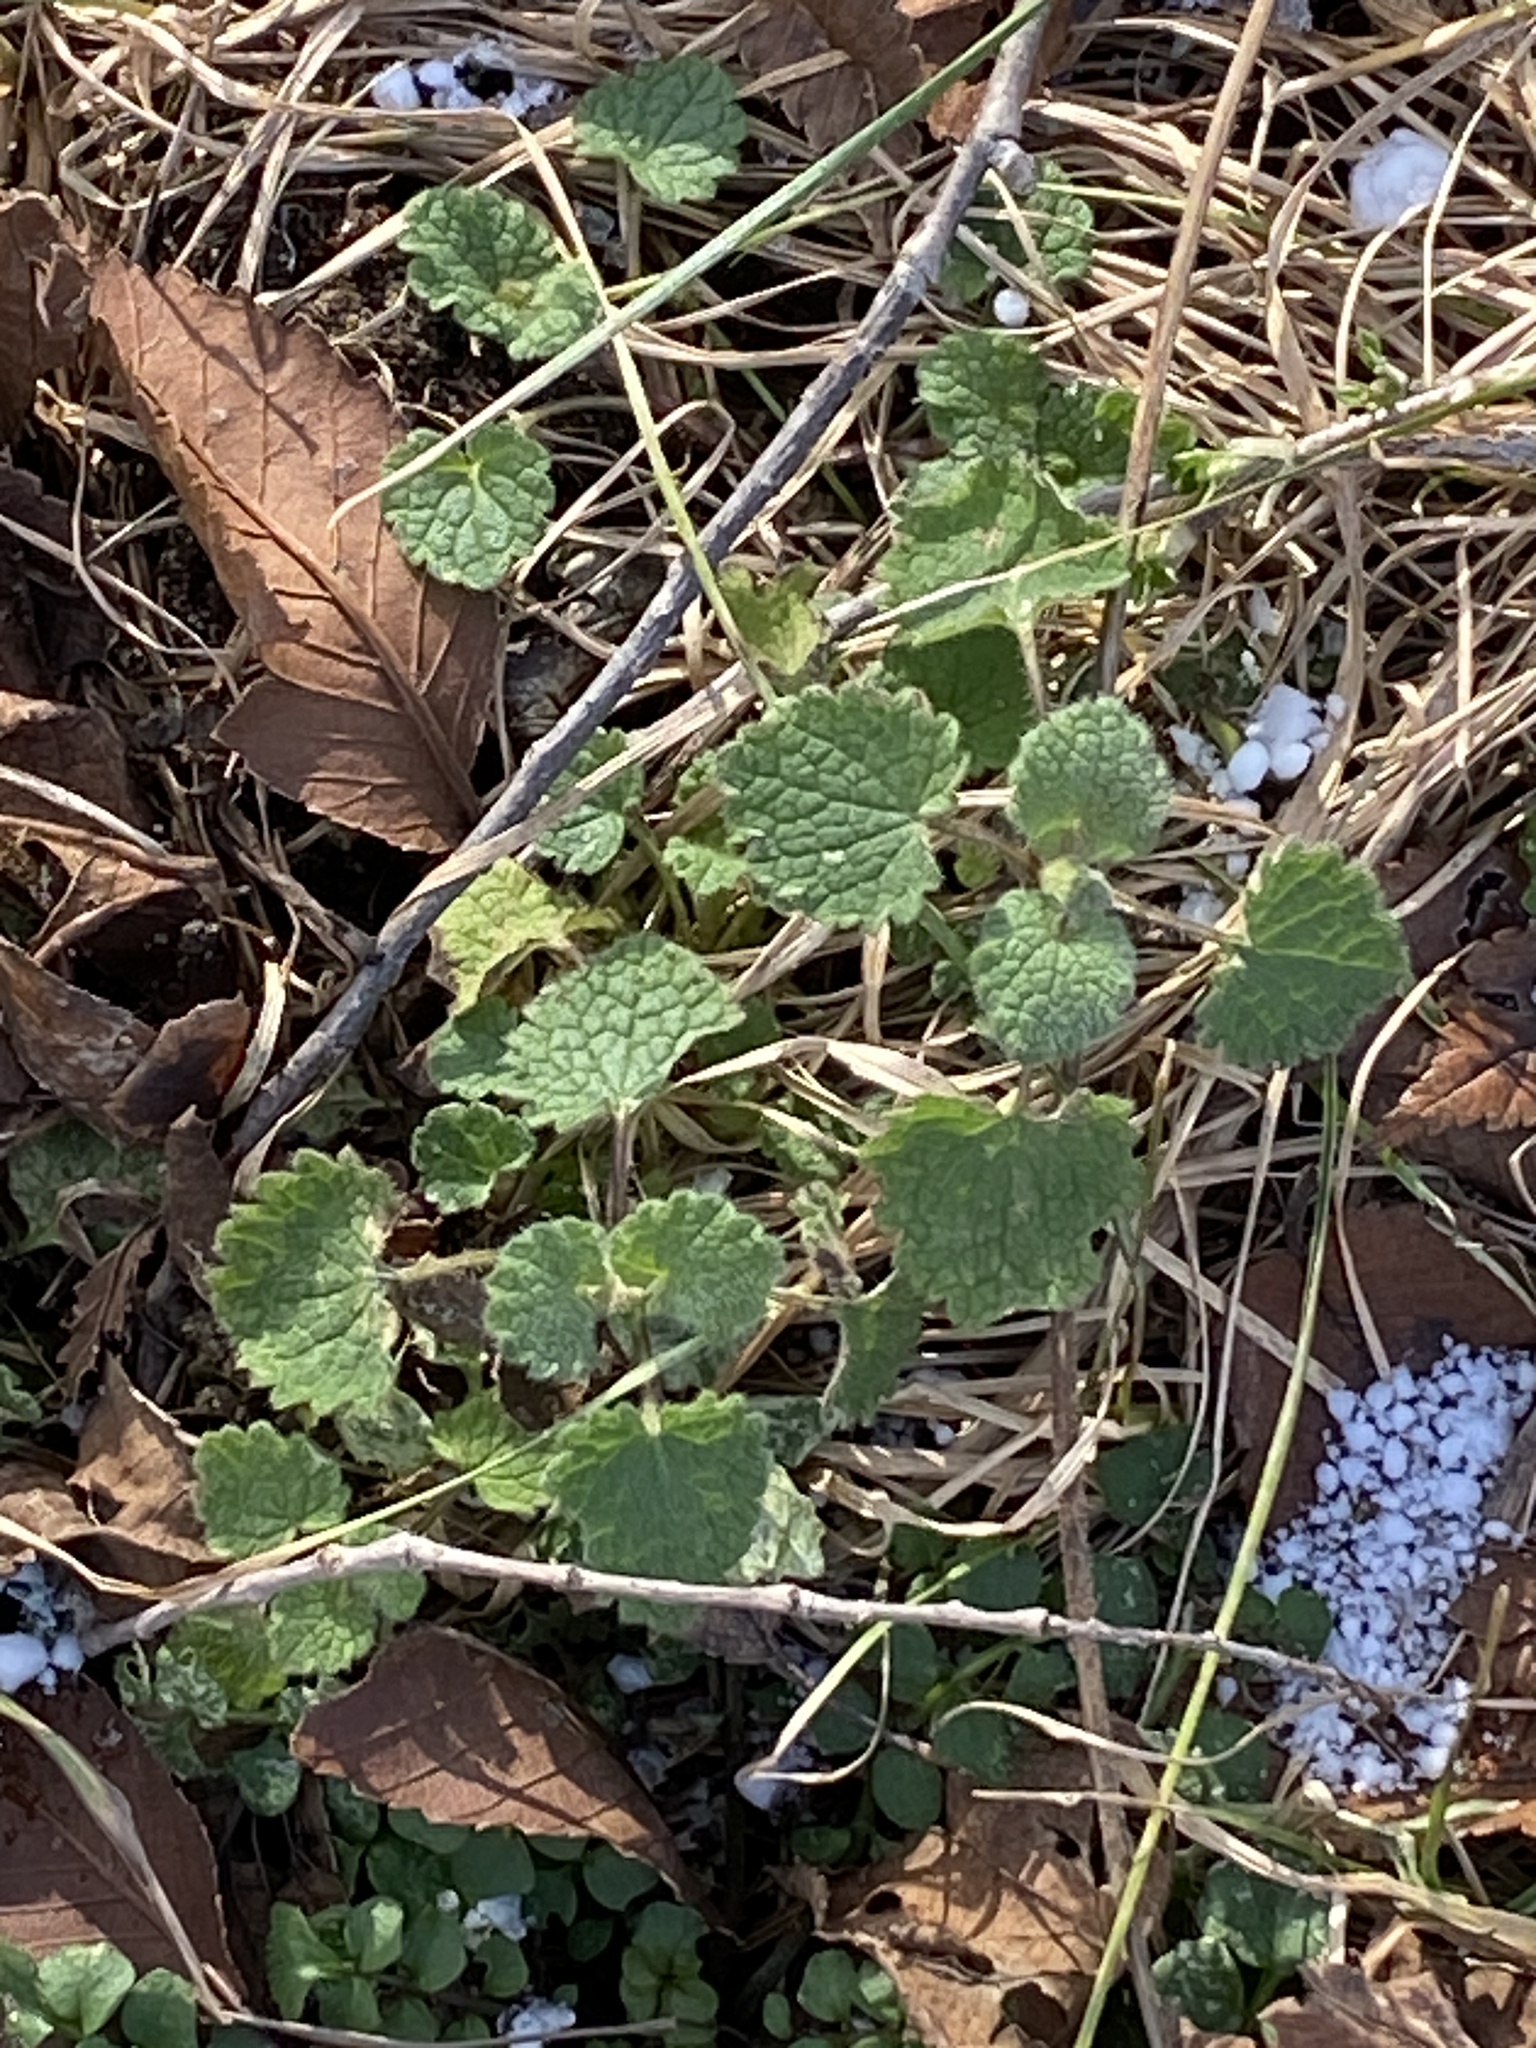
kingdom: Plantae
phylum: Tracheophyta
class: Magnoliopsida
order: Lamiales
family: Lamiaceae
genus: Lamium
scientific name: Lamium purpureum
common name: Red dead-nettle
